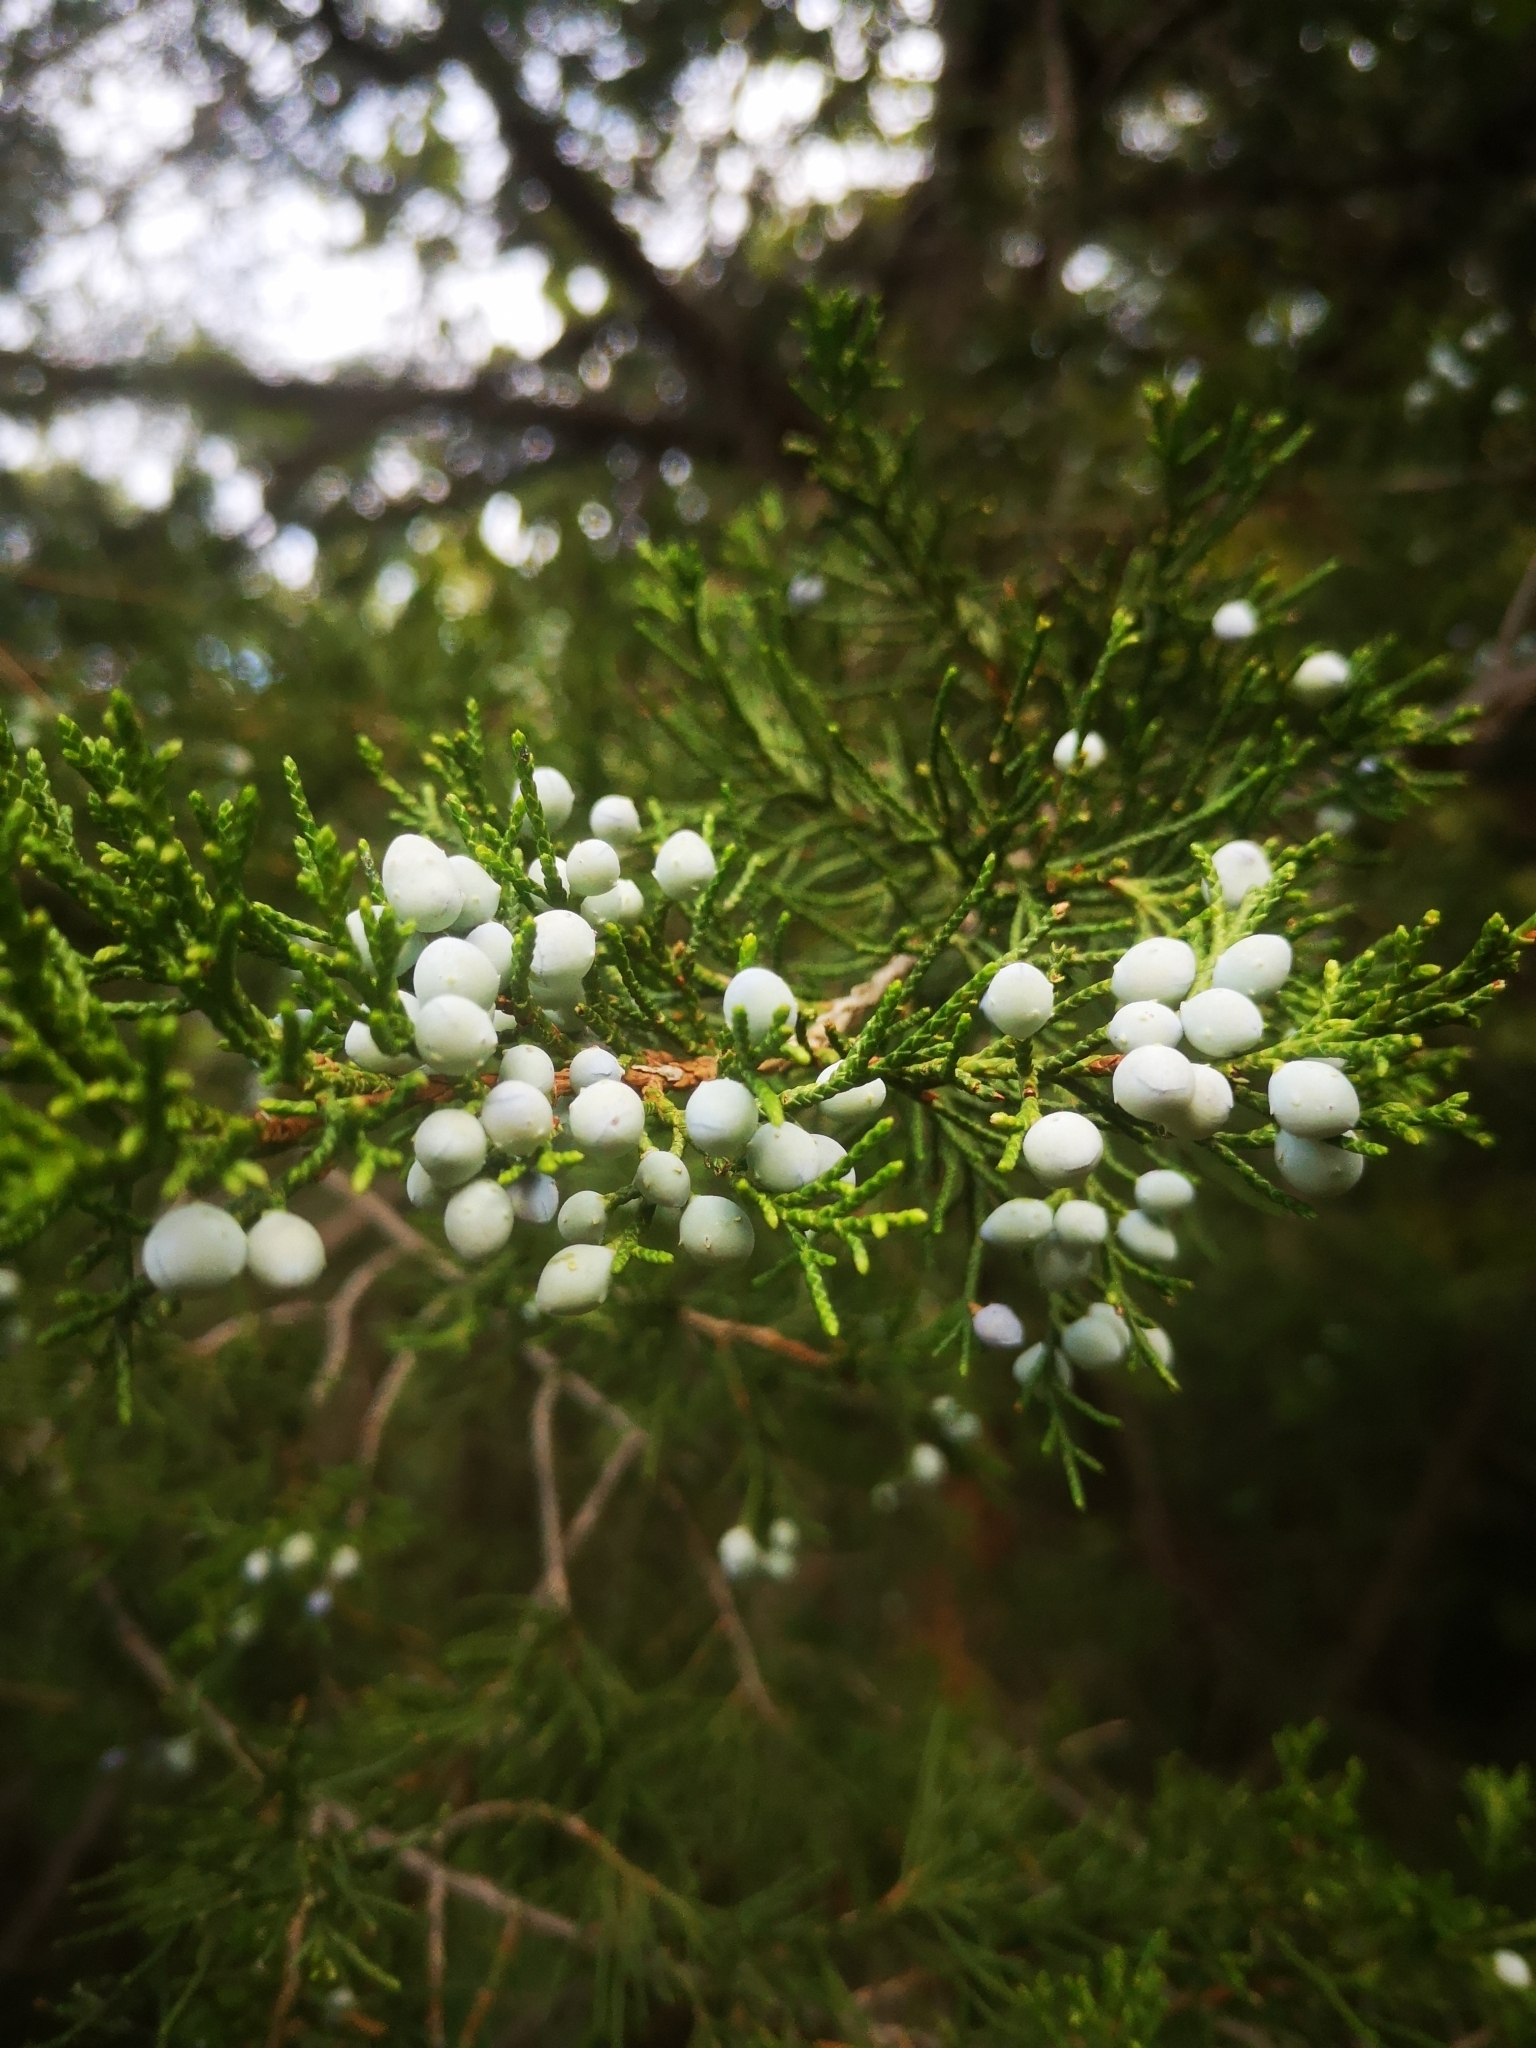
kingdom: Plantae
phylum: Tracheophyta
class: Pinopsida
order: Pinales
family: Cupressaceae
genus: Juniperus
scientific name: Juniperus virginiana
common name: Red juniper
